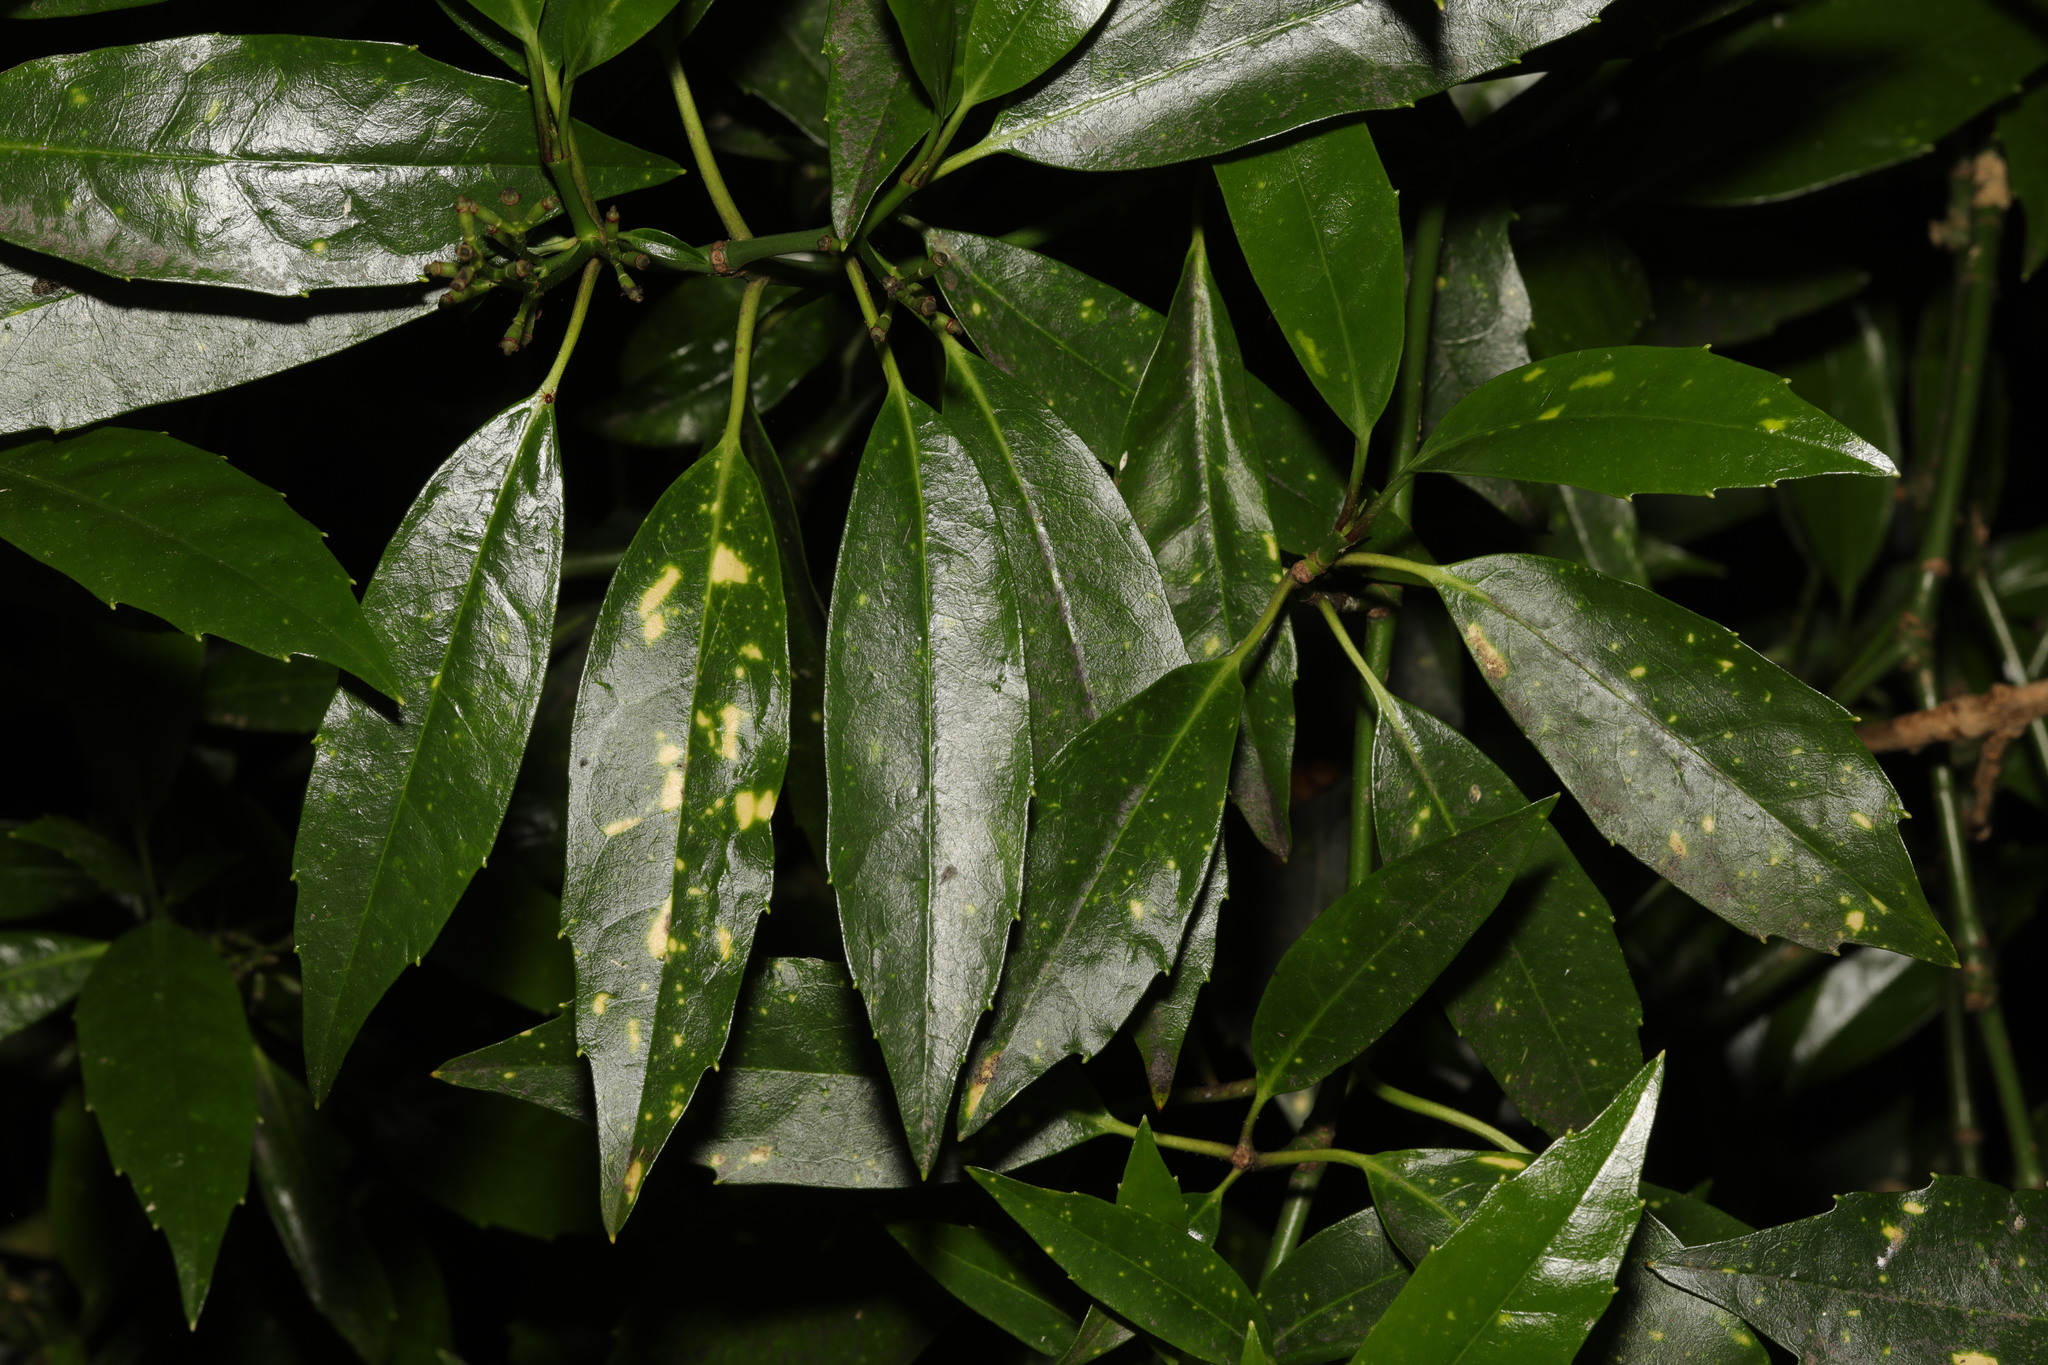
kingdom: Plantae
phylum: Tracheophyta
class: Magnoliopsida
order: Garryales
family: Garryaceae
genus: Aucuba
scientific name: Aucuba japonica
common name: Spotted-laurel
